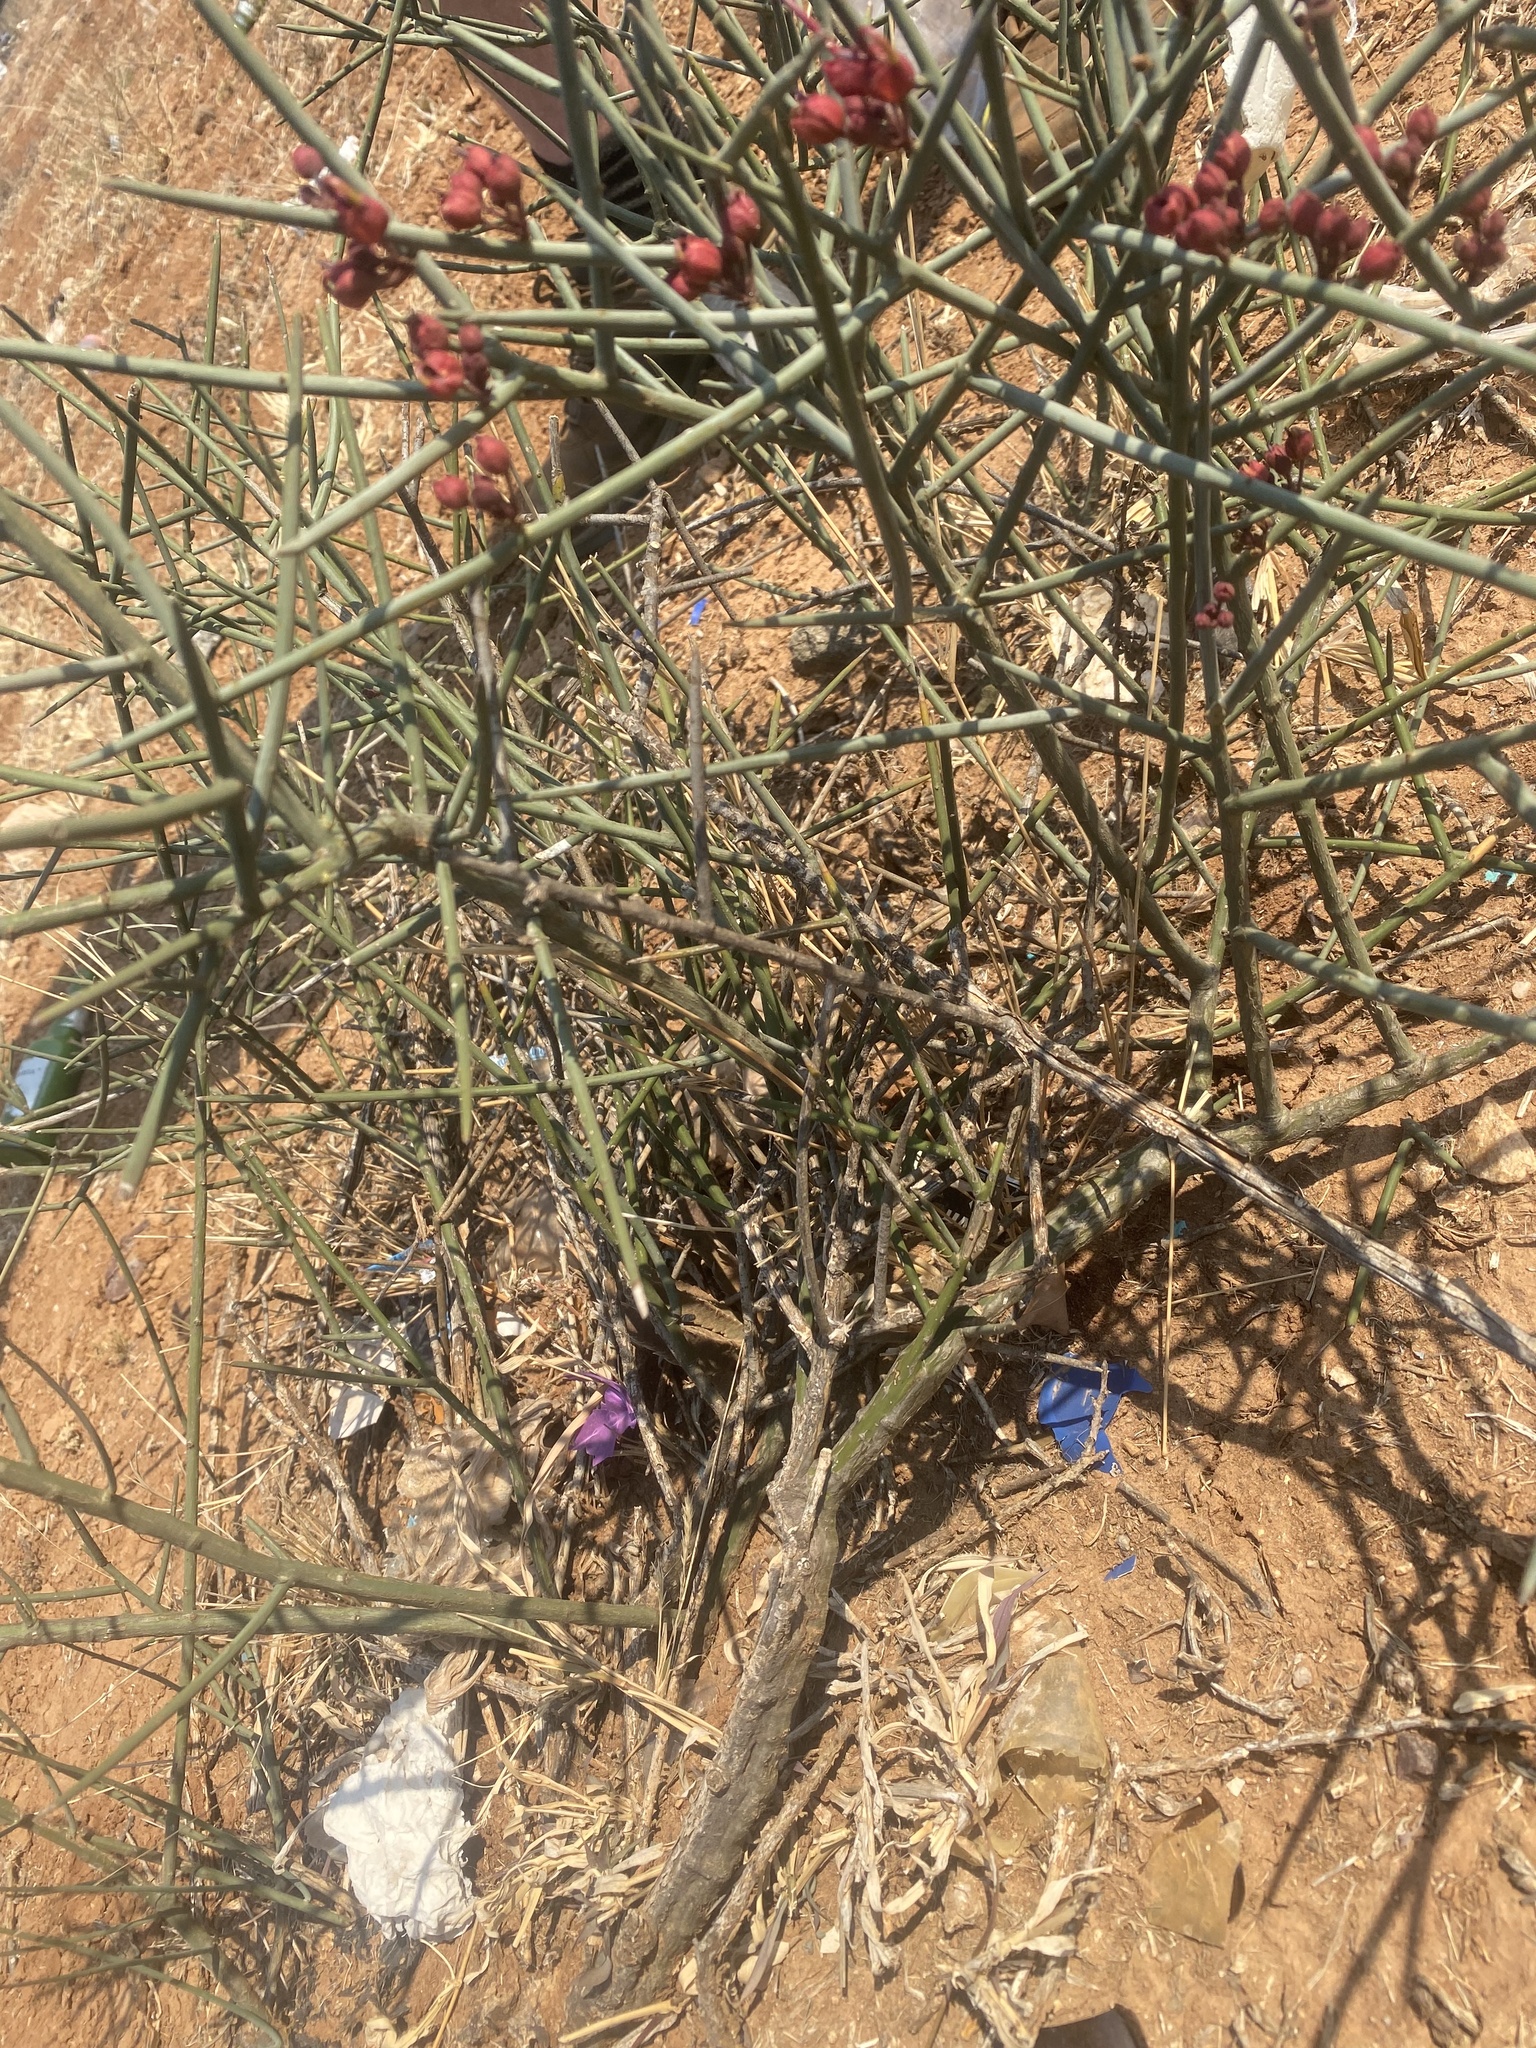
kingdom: Plantae
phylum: Tracheophyta
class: Magnoliopsida
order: Brassicales
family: Capparaceae
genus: Cadaba
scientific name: Cadaba aphylla
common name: Black storm
